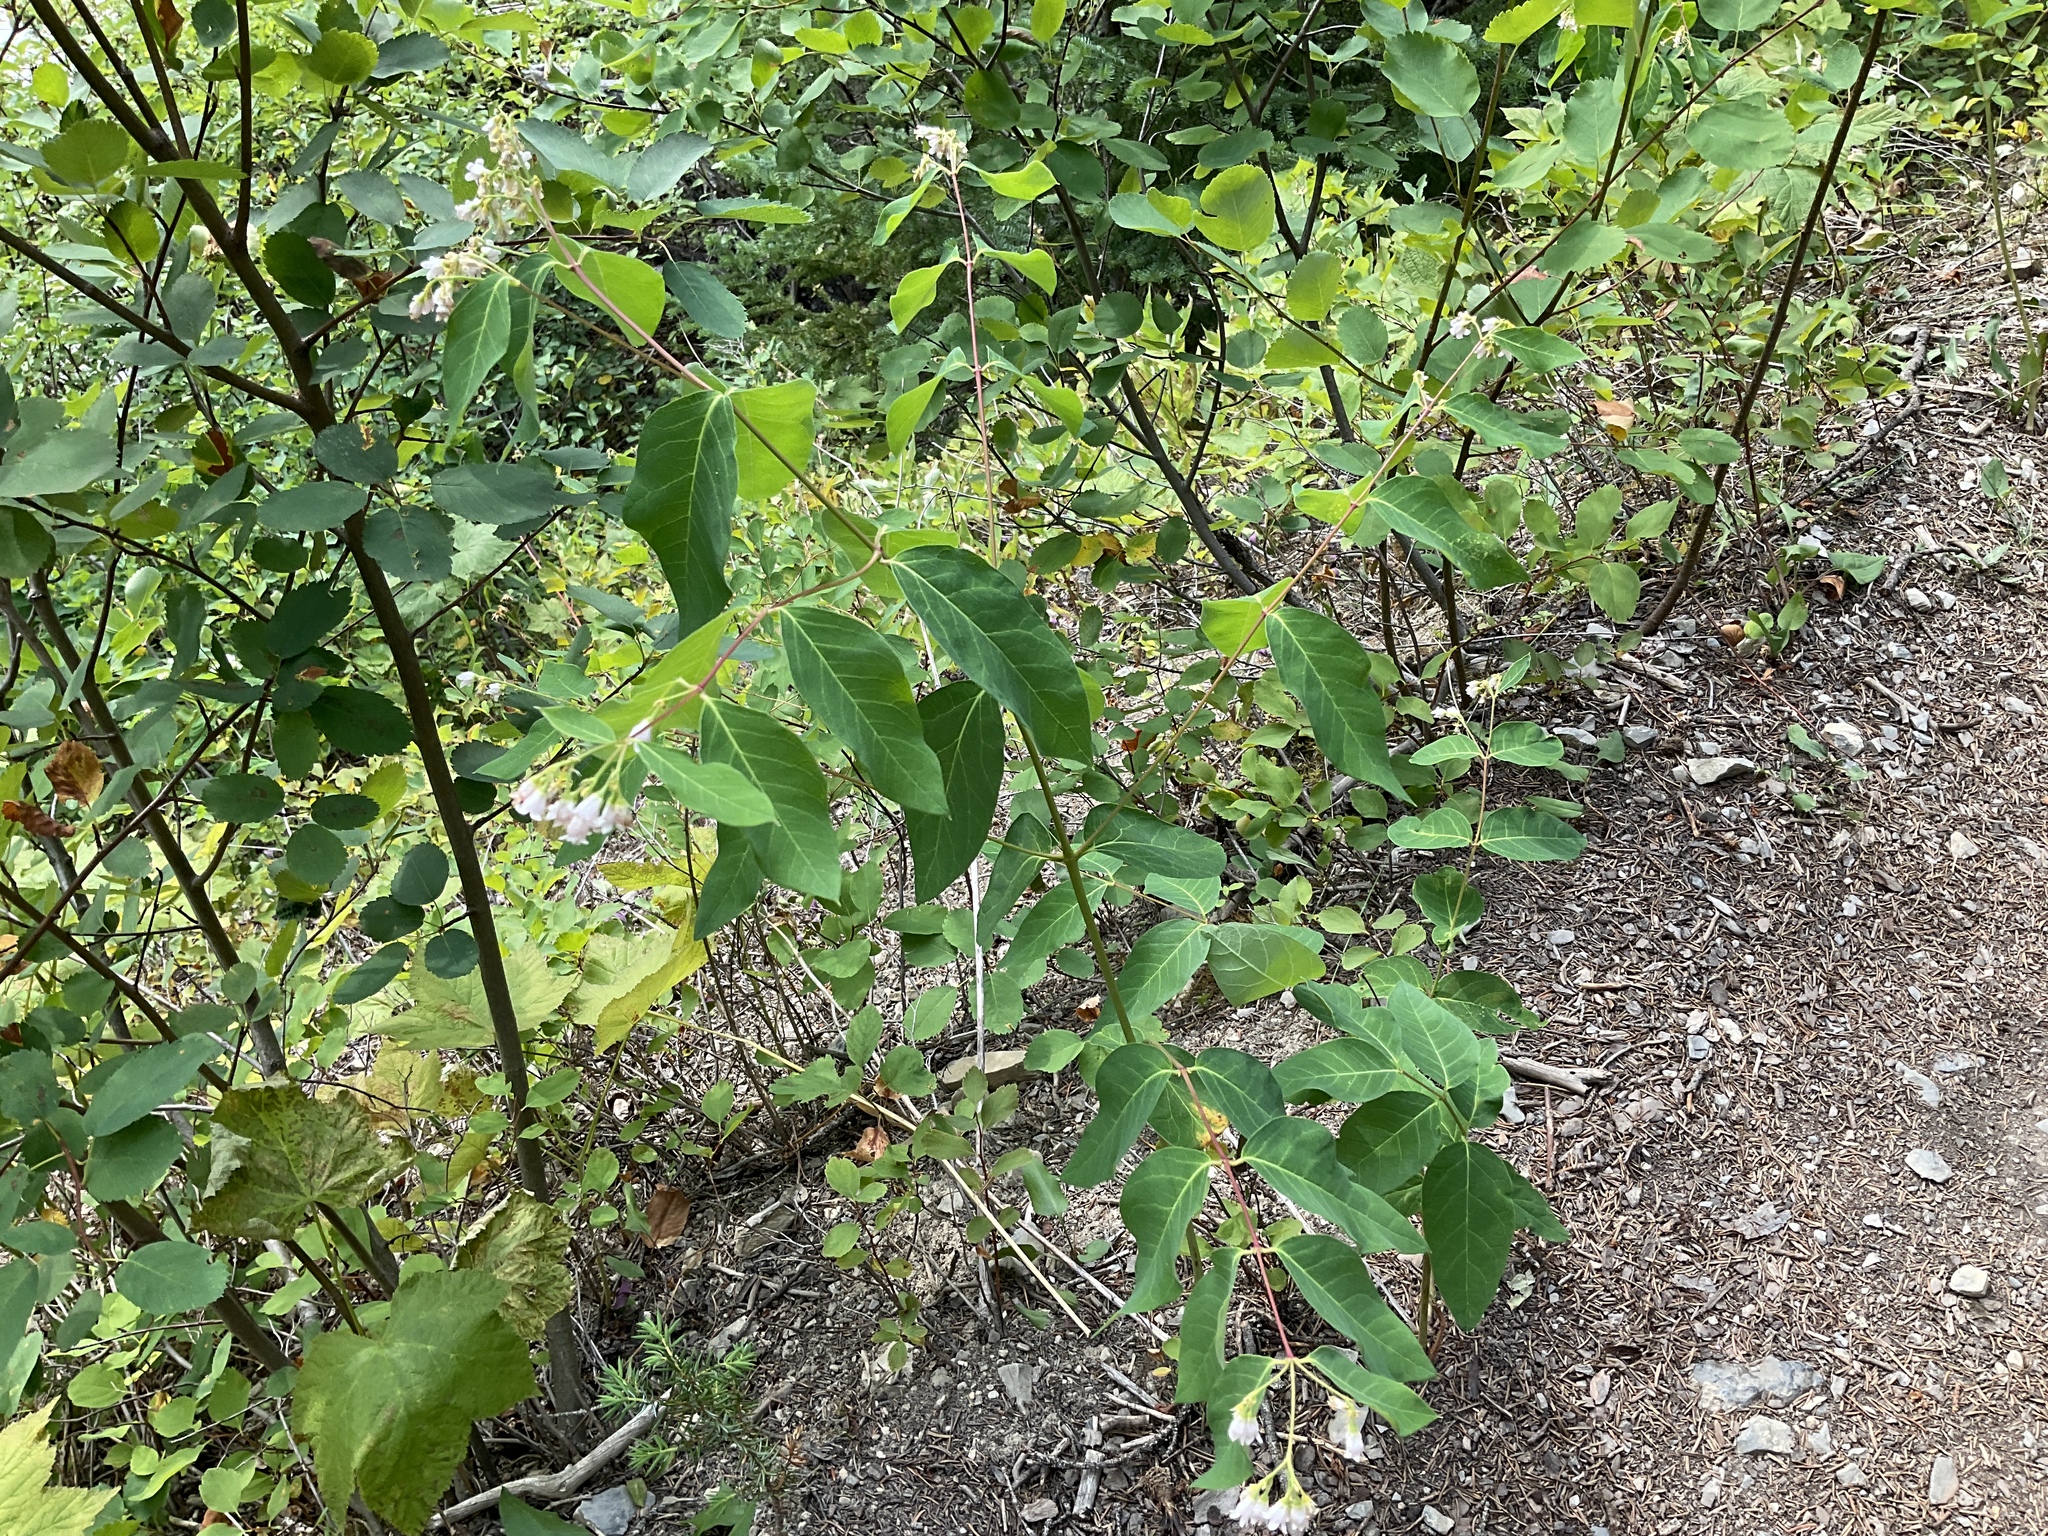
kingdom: Plantae
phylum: Tracheophyta
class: Magnoliopsida
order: Gentianales
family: Apocynaceae
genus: Apocynum
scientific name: Apocynum androsaemifolium
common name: Spreading dogbane
